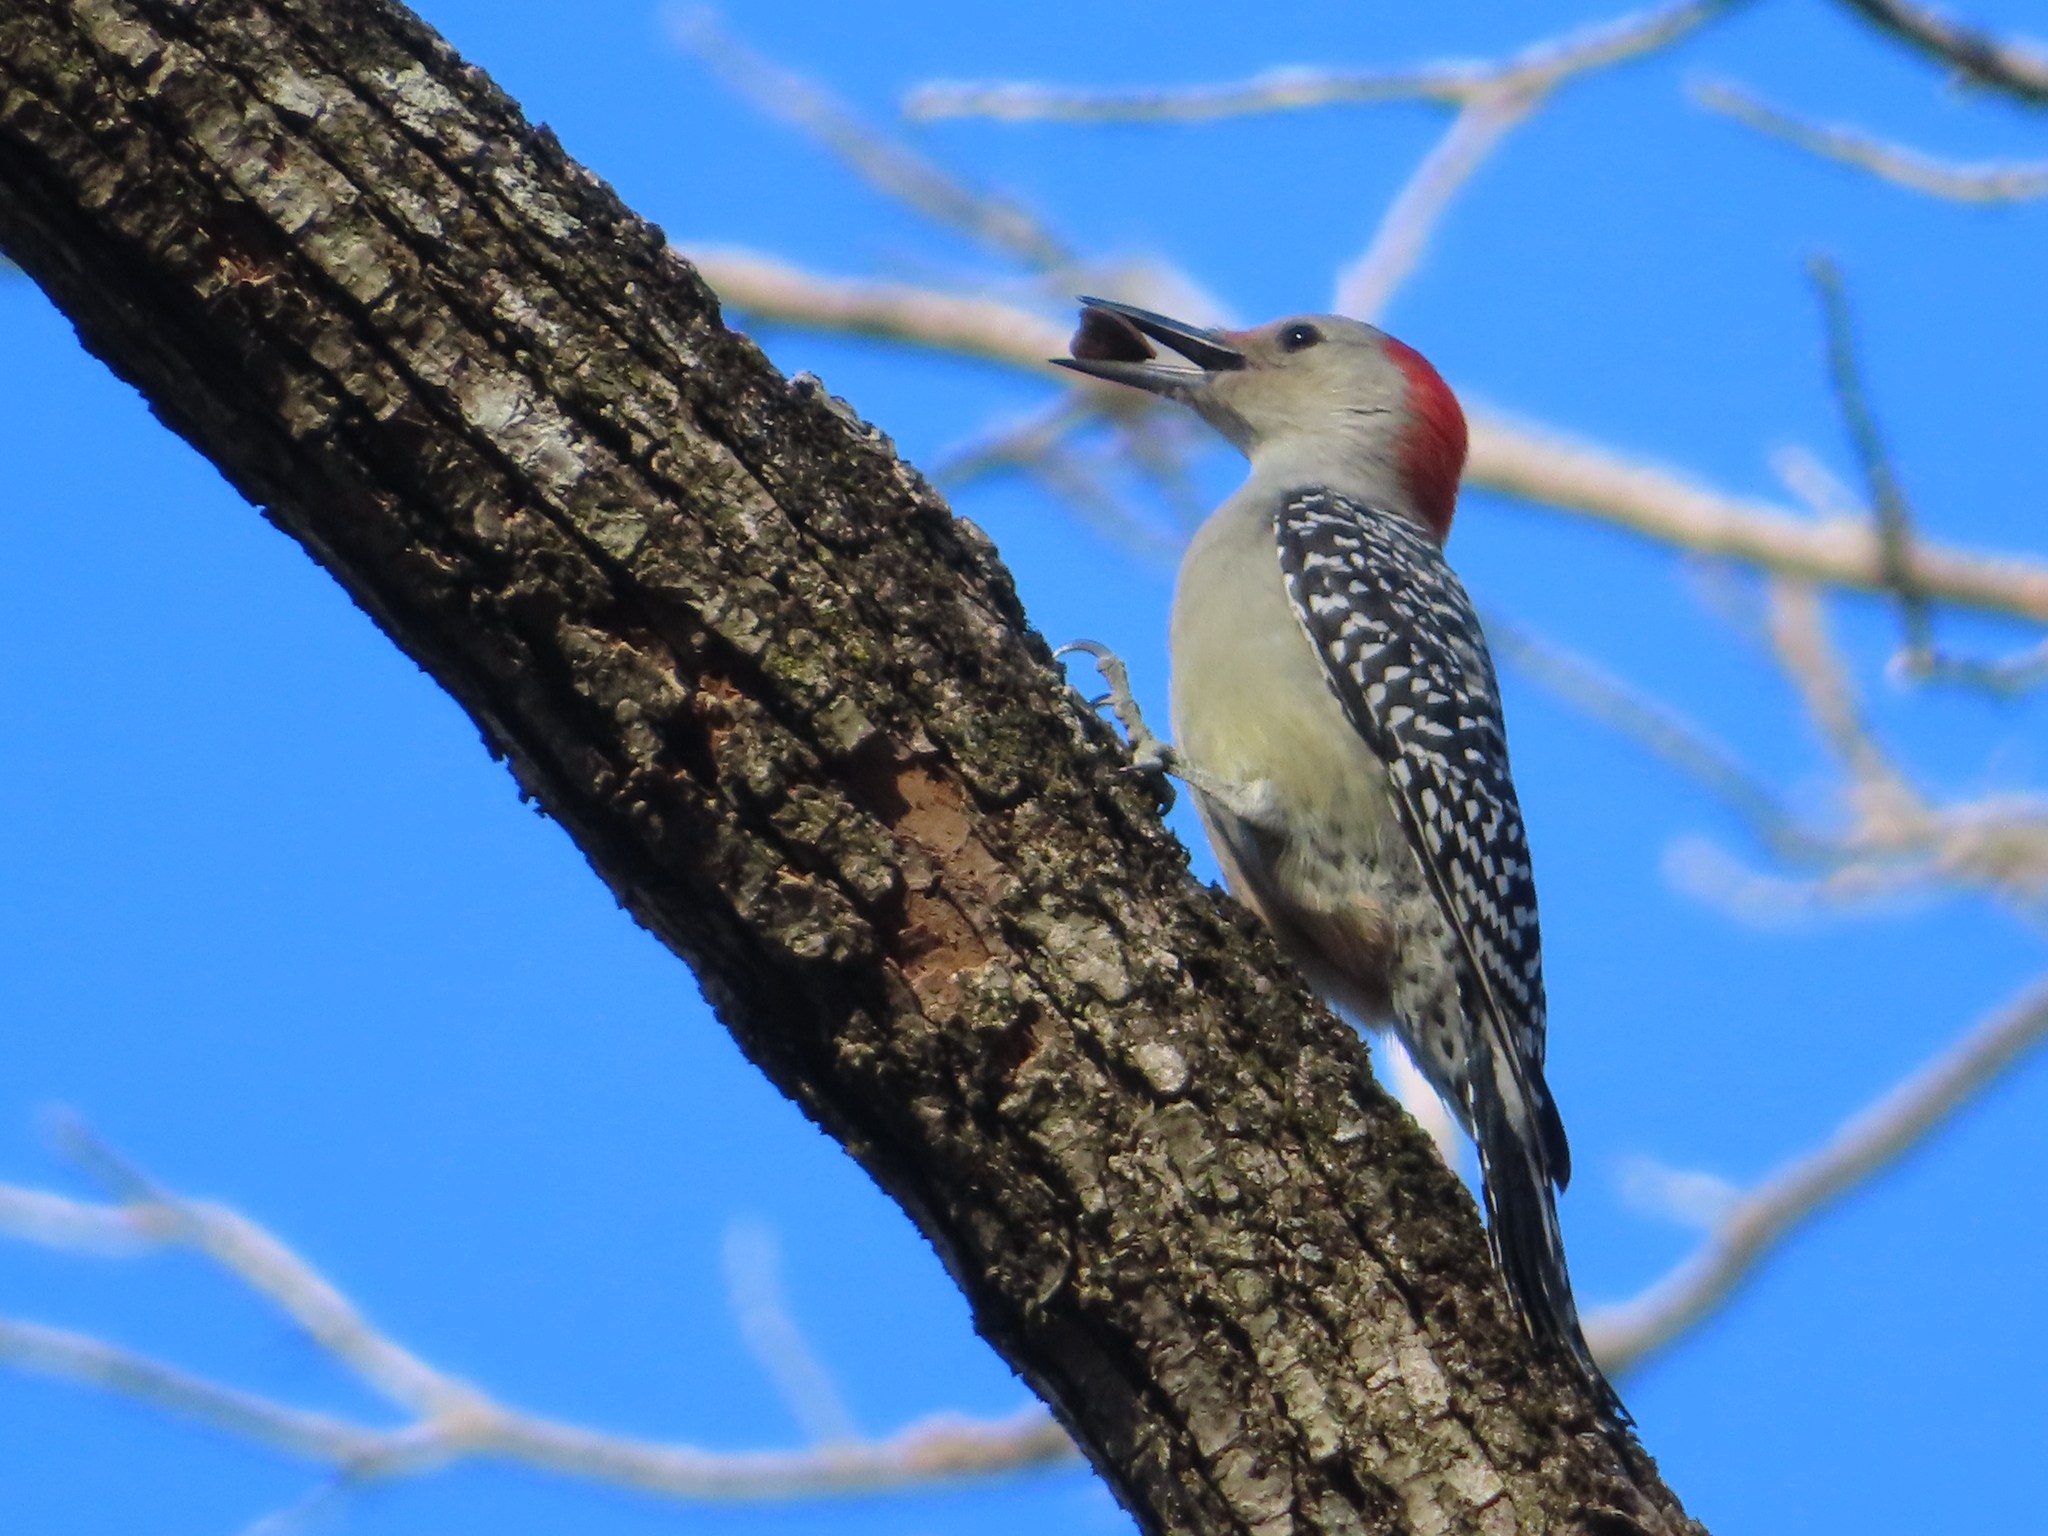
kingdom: Animalia
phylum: Chordata
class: Aves
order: Piciformes
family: Picidae
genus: Melanerpes
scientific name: Melanerpes carolinus
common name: Red-bellied woodpecker
